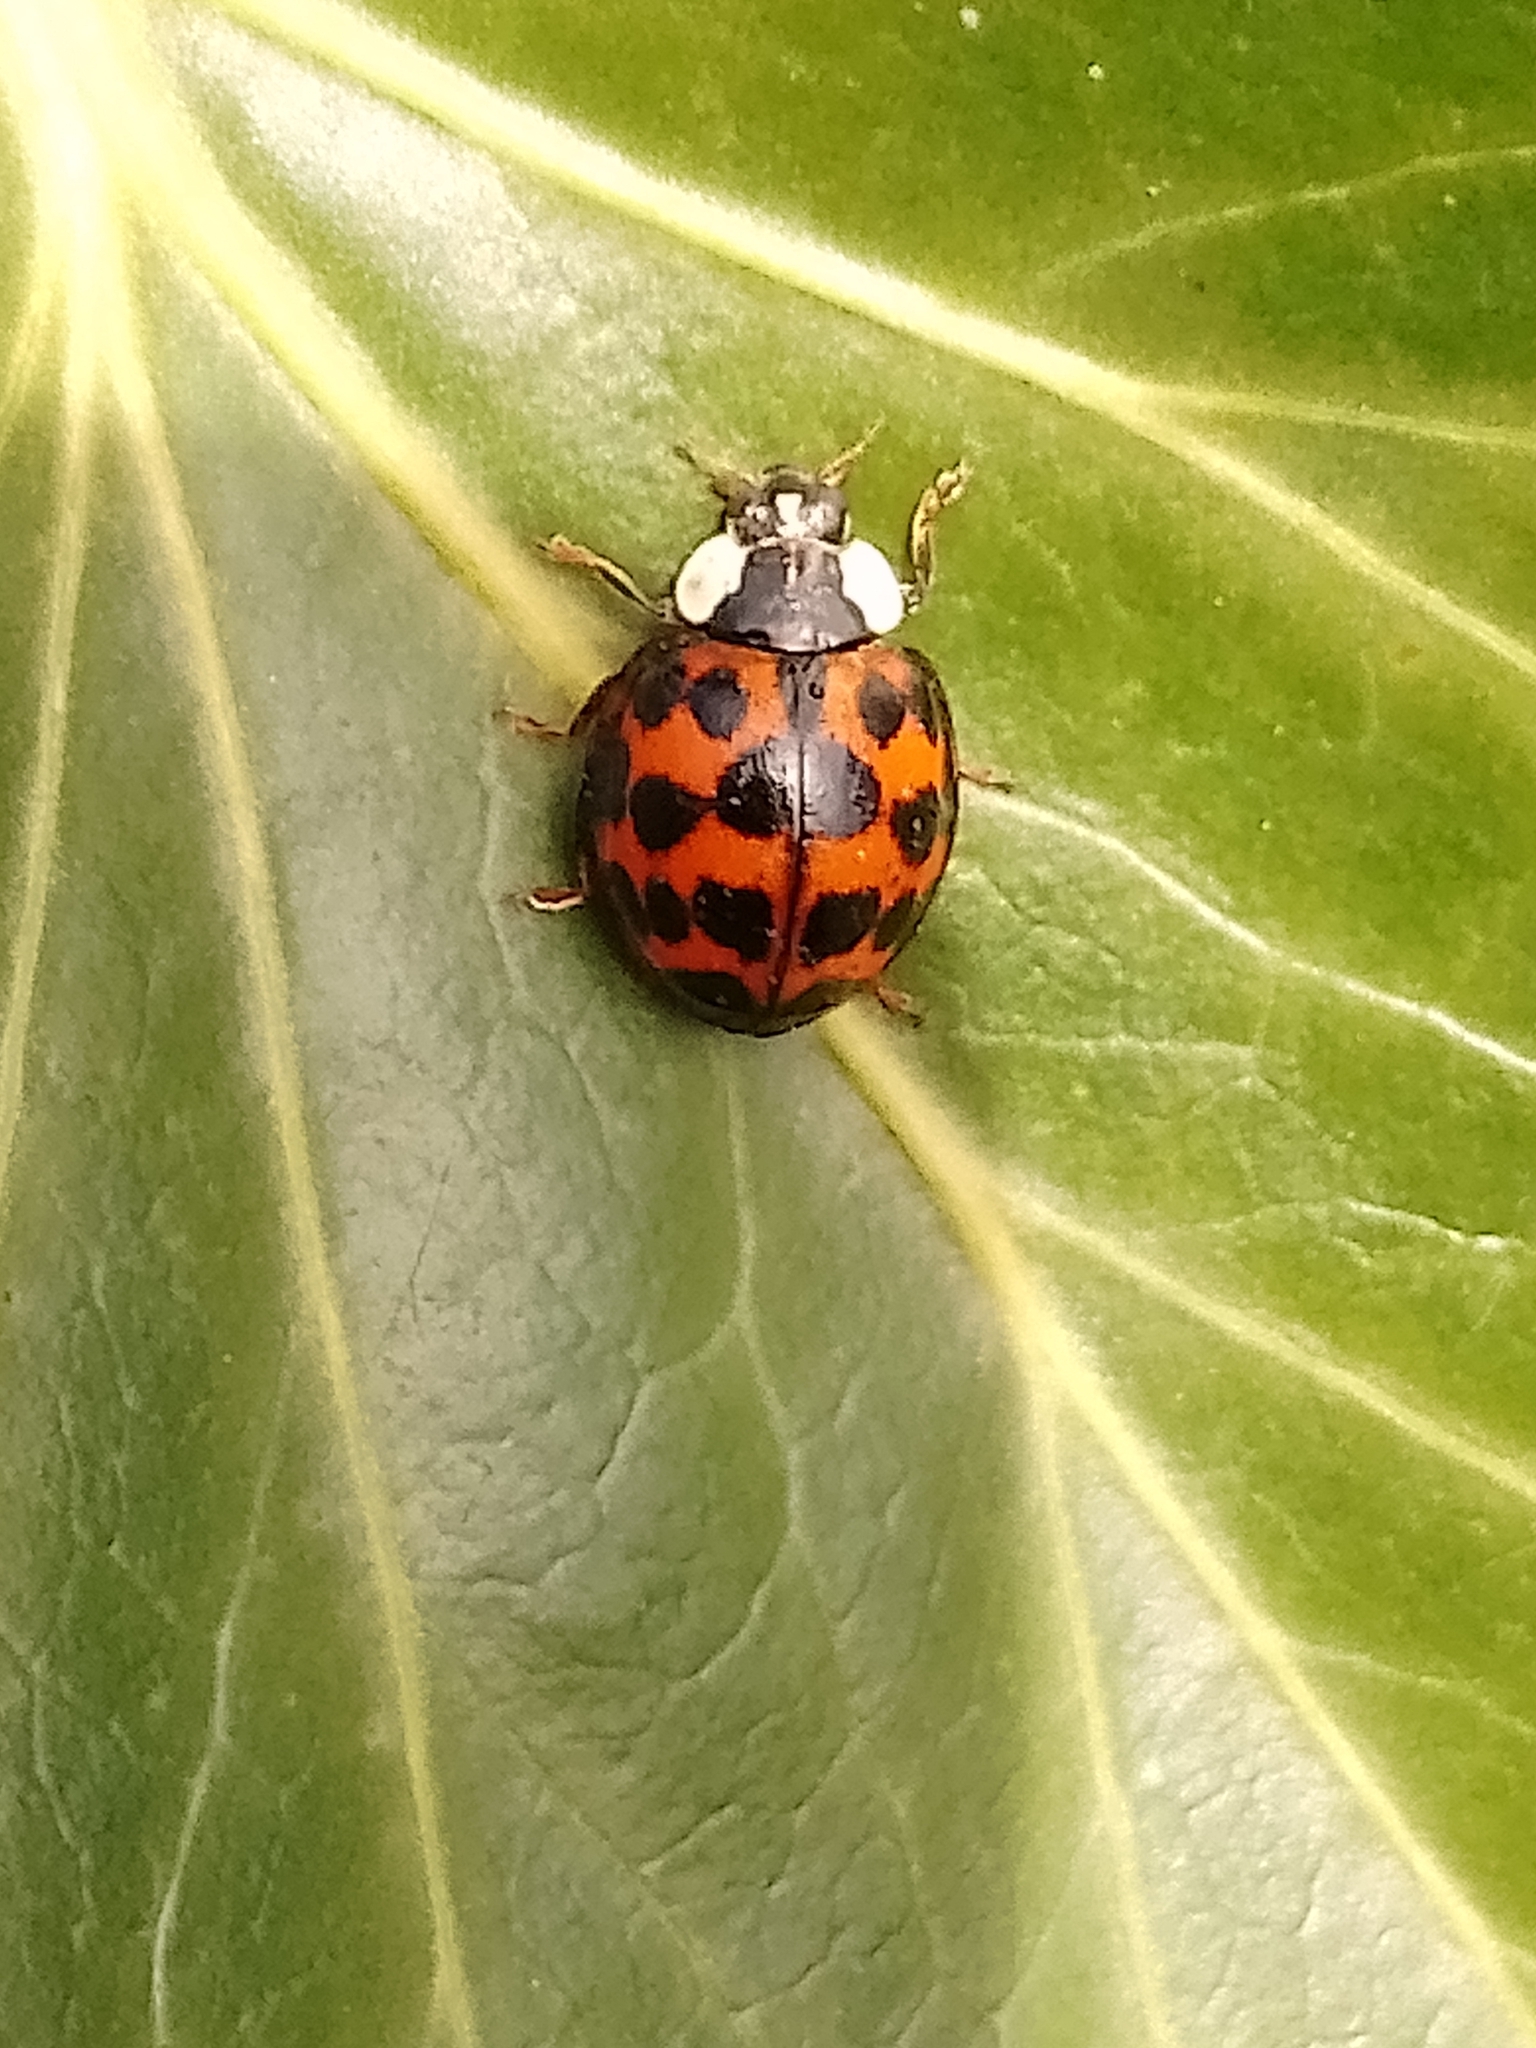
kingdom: Animalia
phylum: Arthropoda
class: Insecta
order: Coleoptera
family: Coccinellidae
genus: Harmonia
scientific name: Harmonia axyridis
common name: Harlequin ladybird
